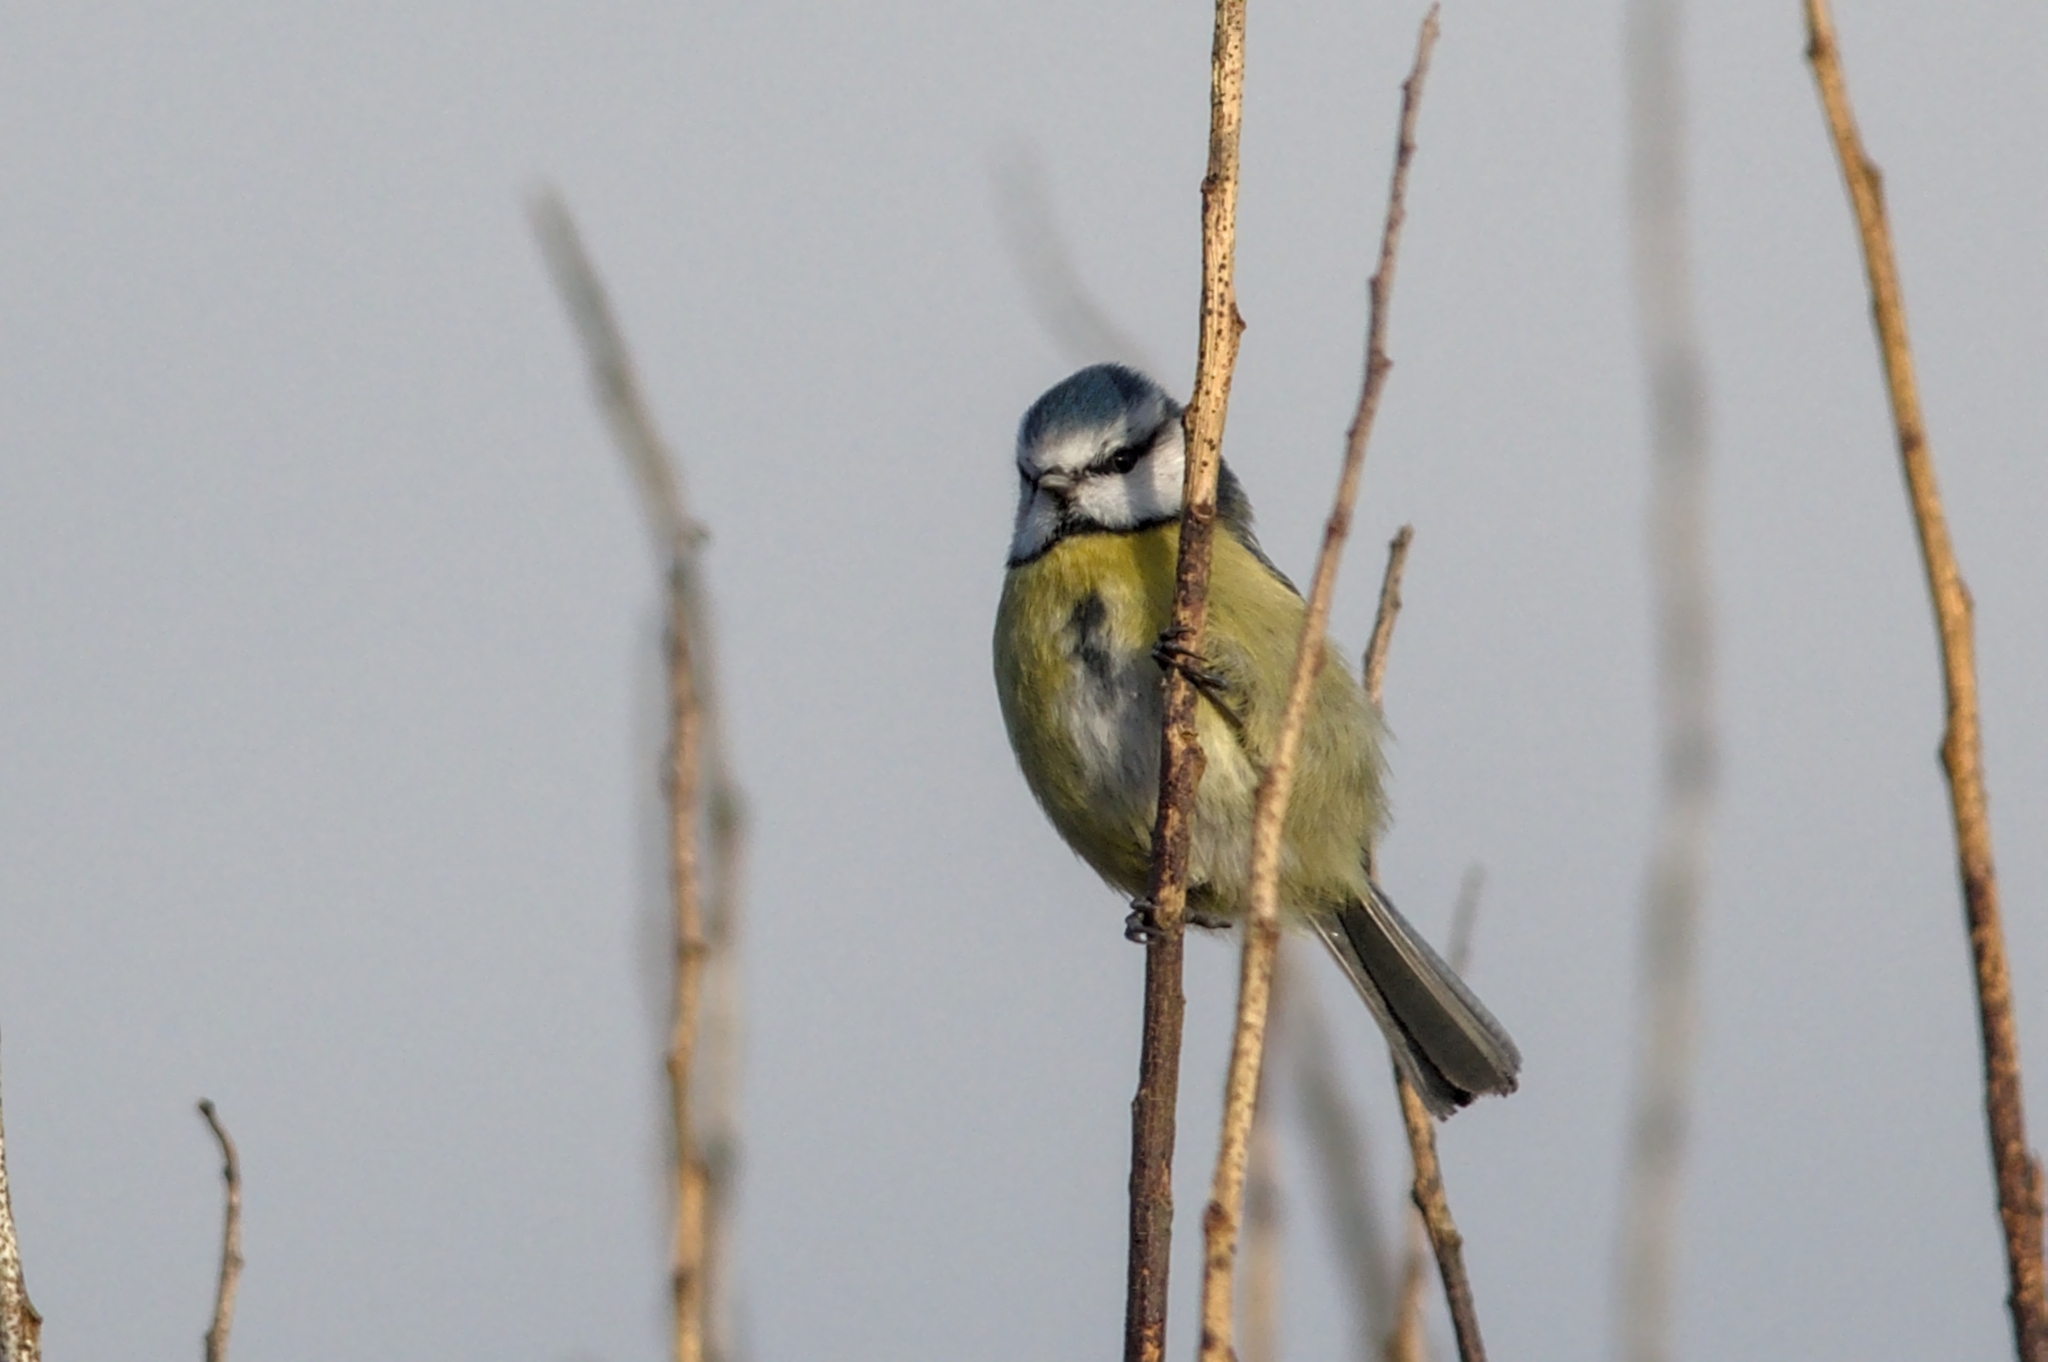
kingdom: Animalia
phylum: Chordata
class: Aves
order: Passeriformes
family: Paridae
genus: Cyanistes
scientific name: Cyanistes caeruleus
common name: Eurasian blue tit
